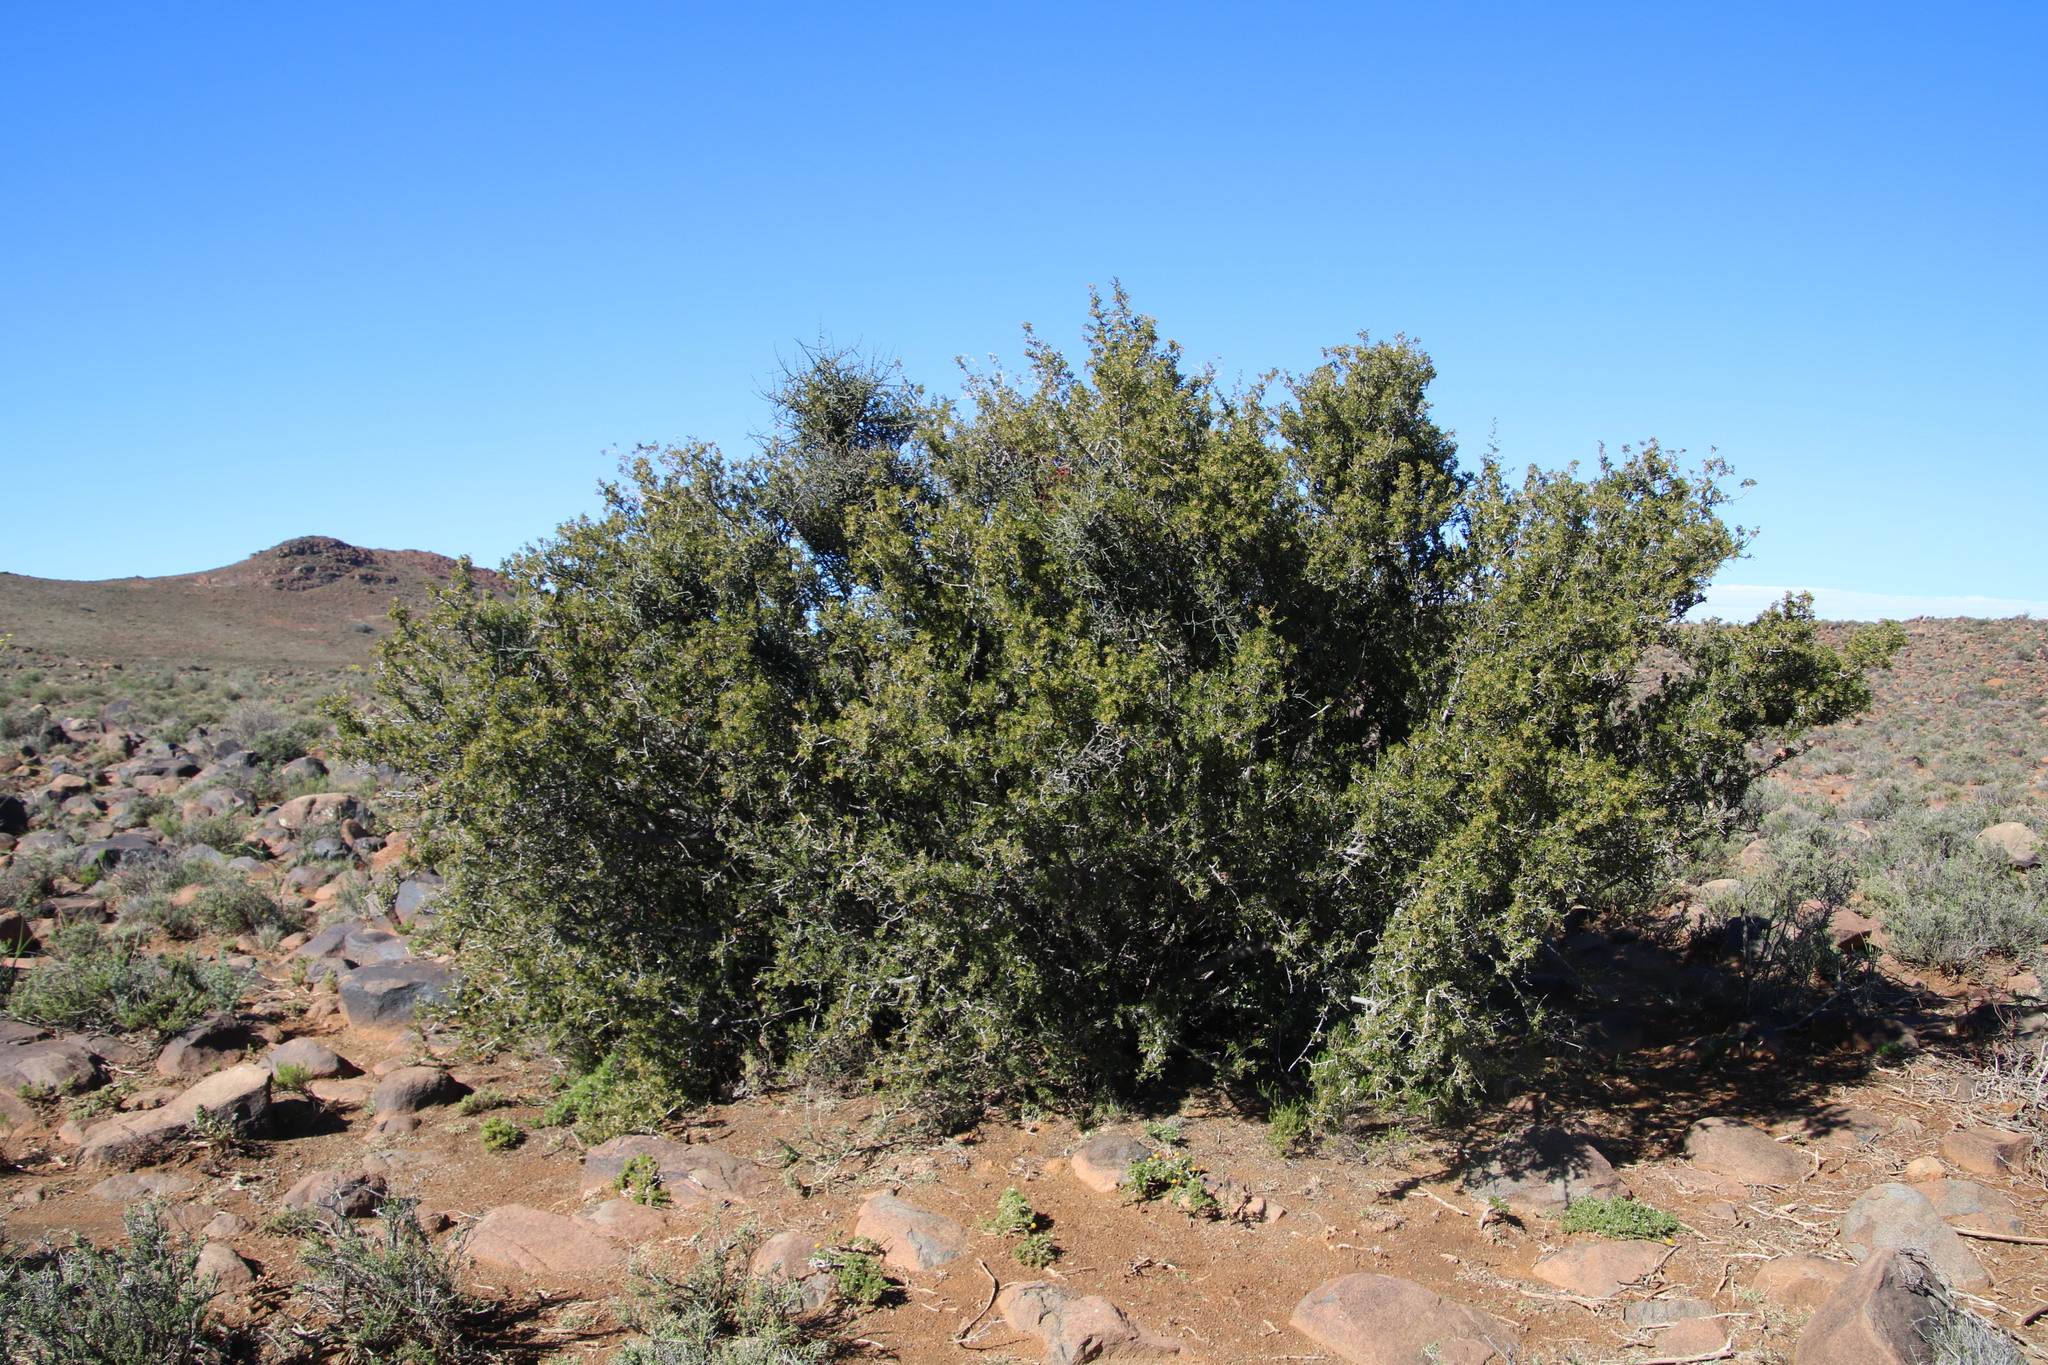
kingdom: Plantae
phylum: Tracheophyta
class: Magnoliopsida
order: Sapindales
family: Anacardiaceae
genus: Searsia
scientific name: Searsia burchellii
